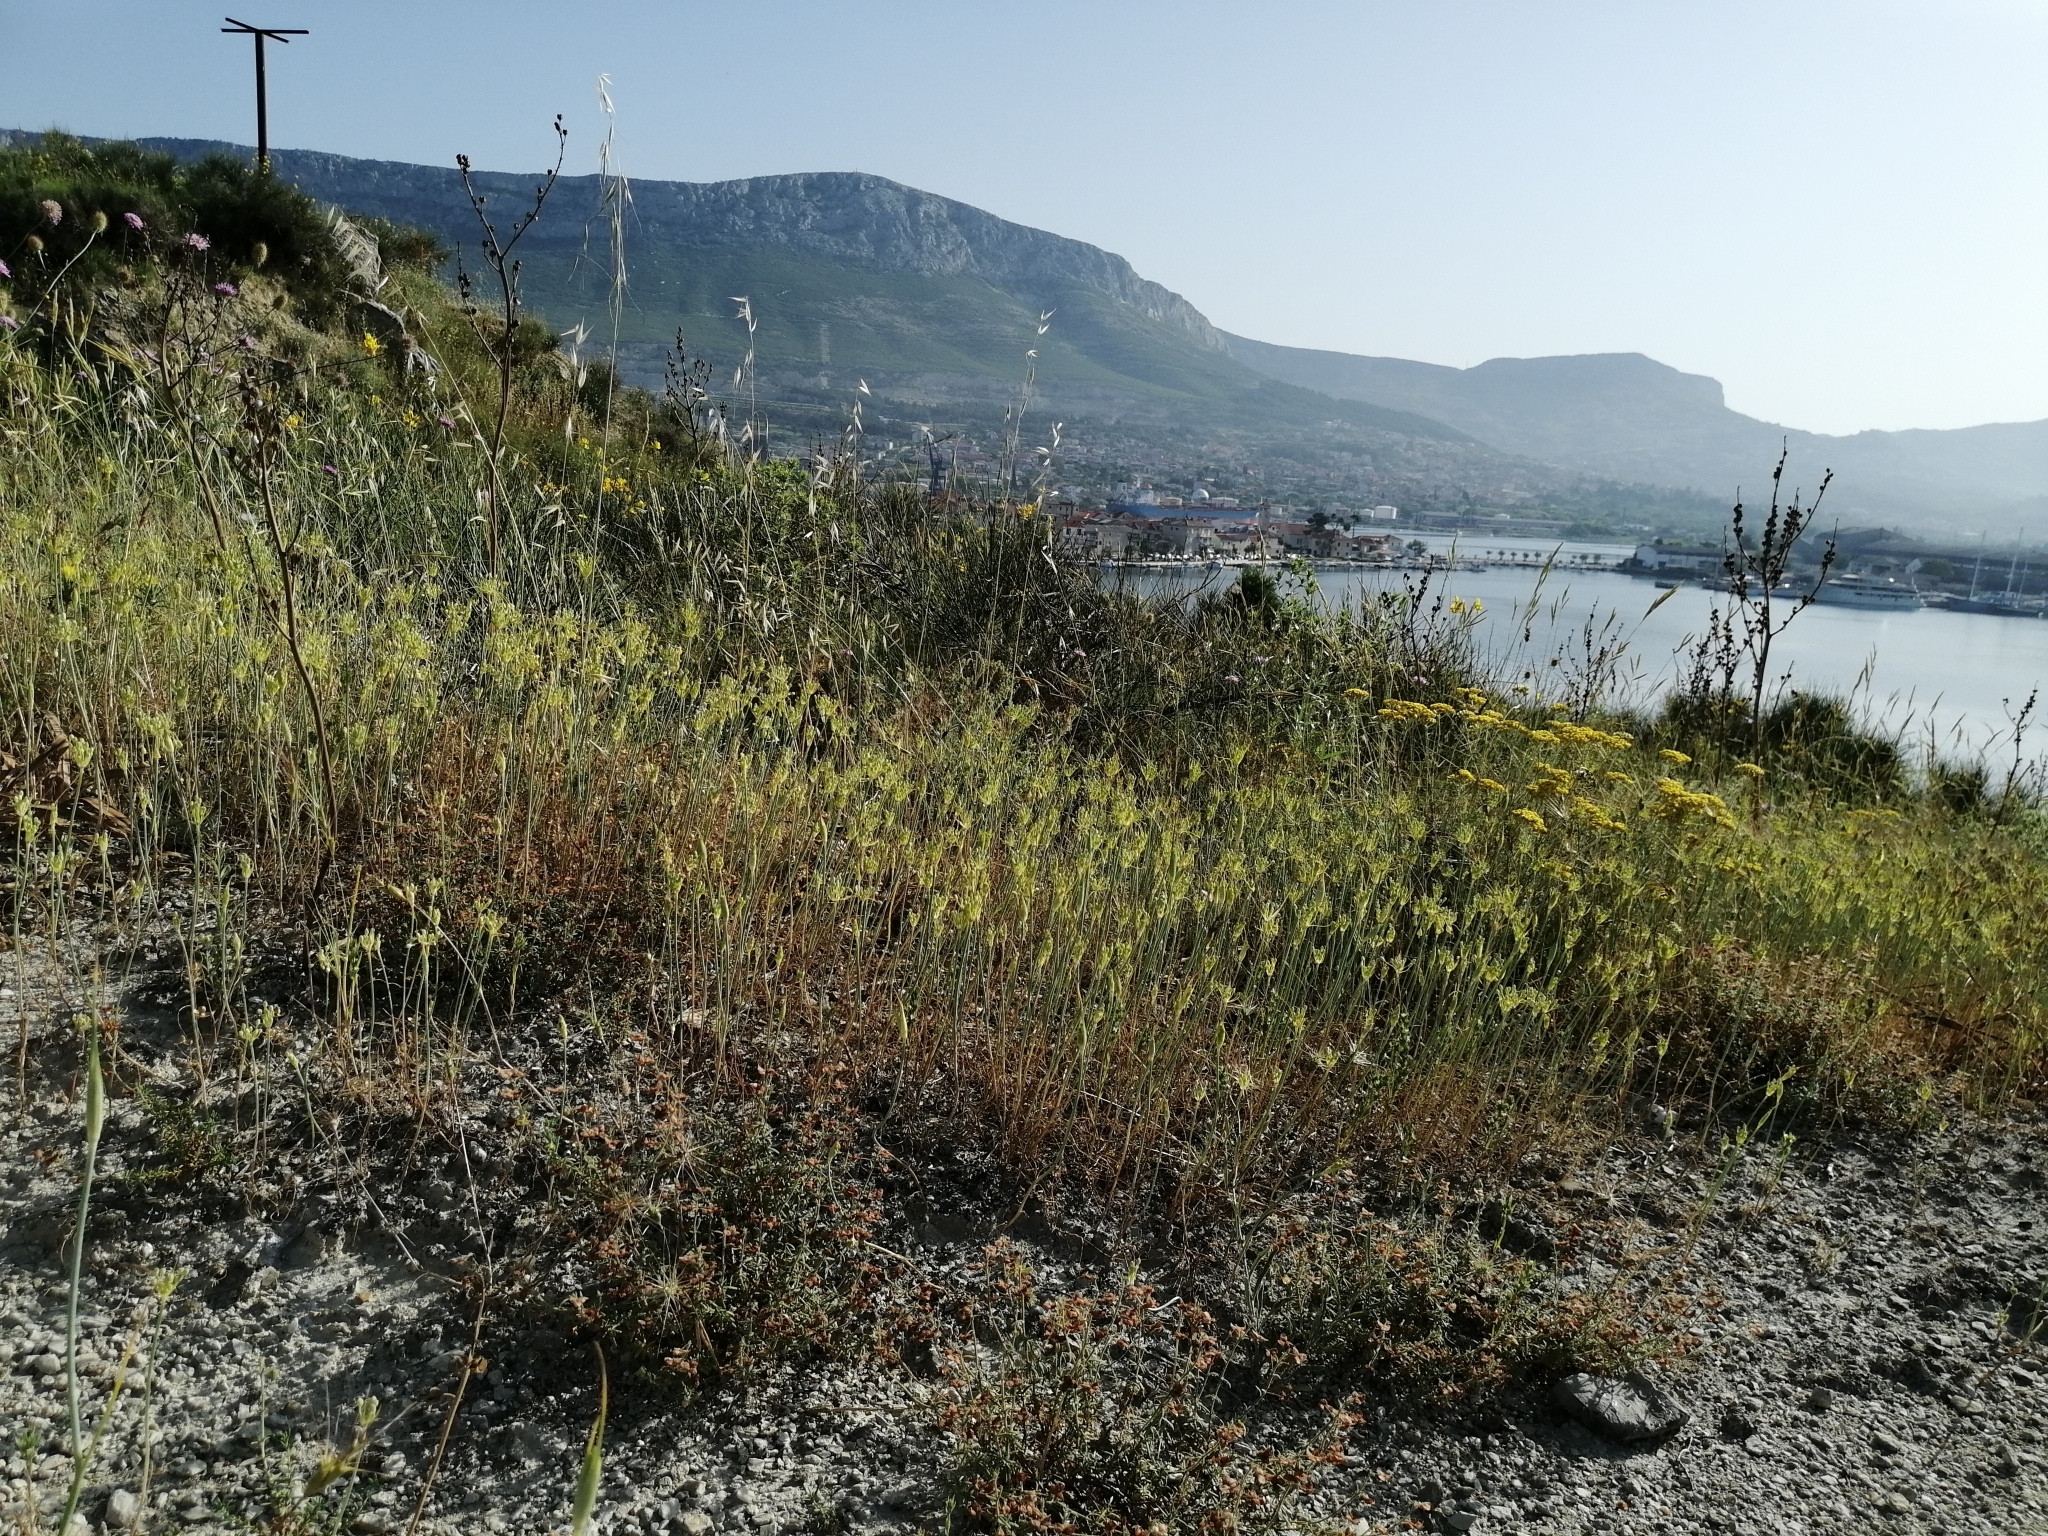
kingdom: Plantae
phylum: Tracheophyta
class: Liliopsida
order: Asparagales
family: Amaryllidaceae
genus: Allium
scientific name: Allium flavum
